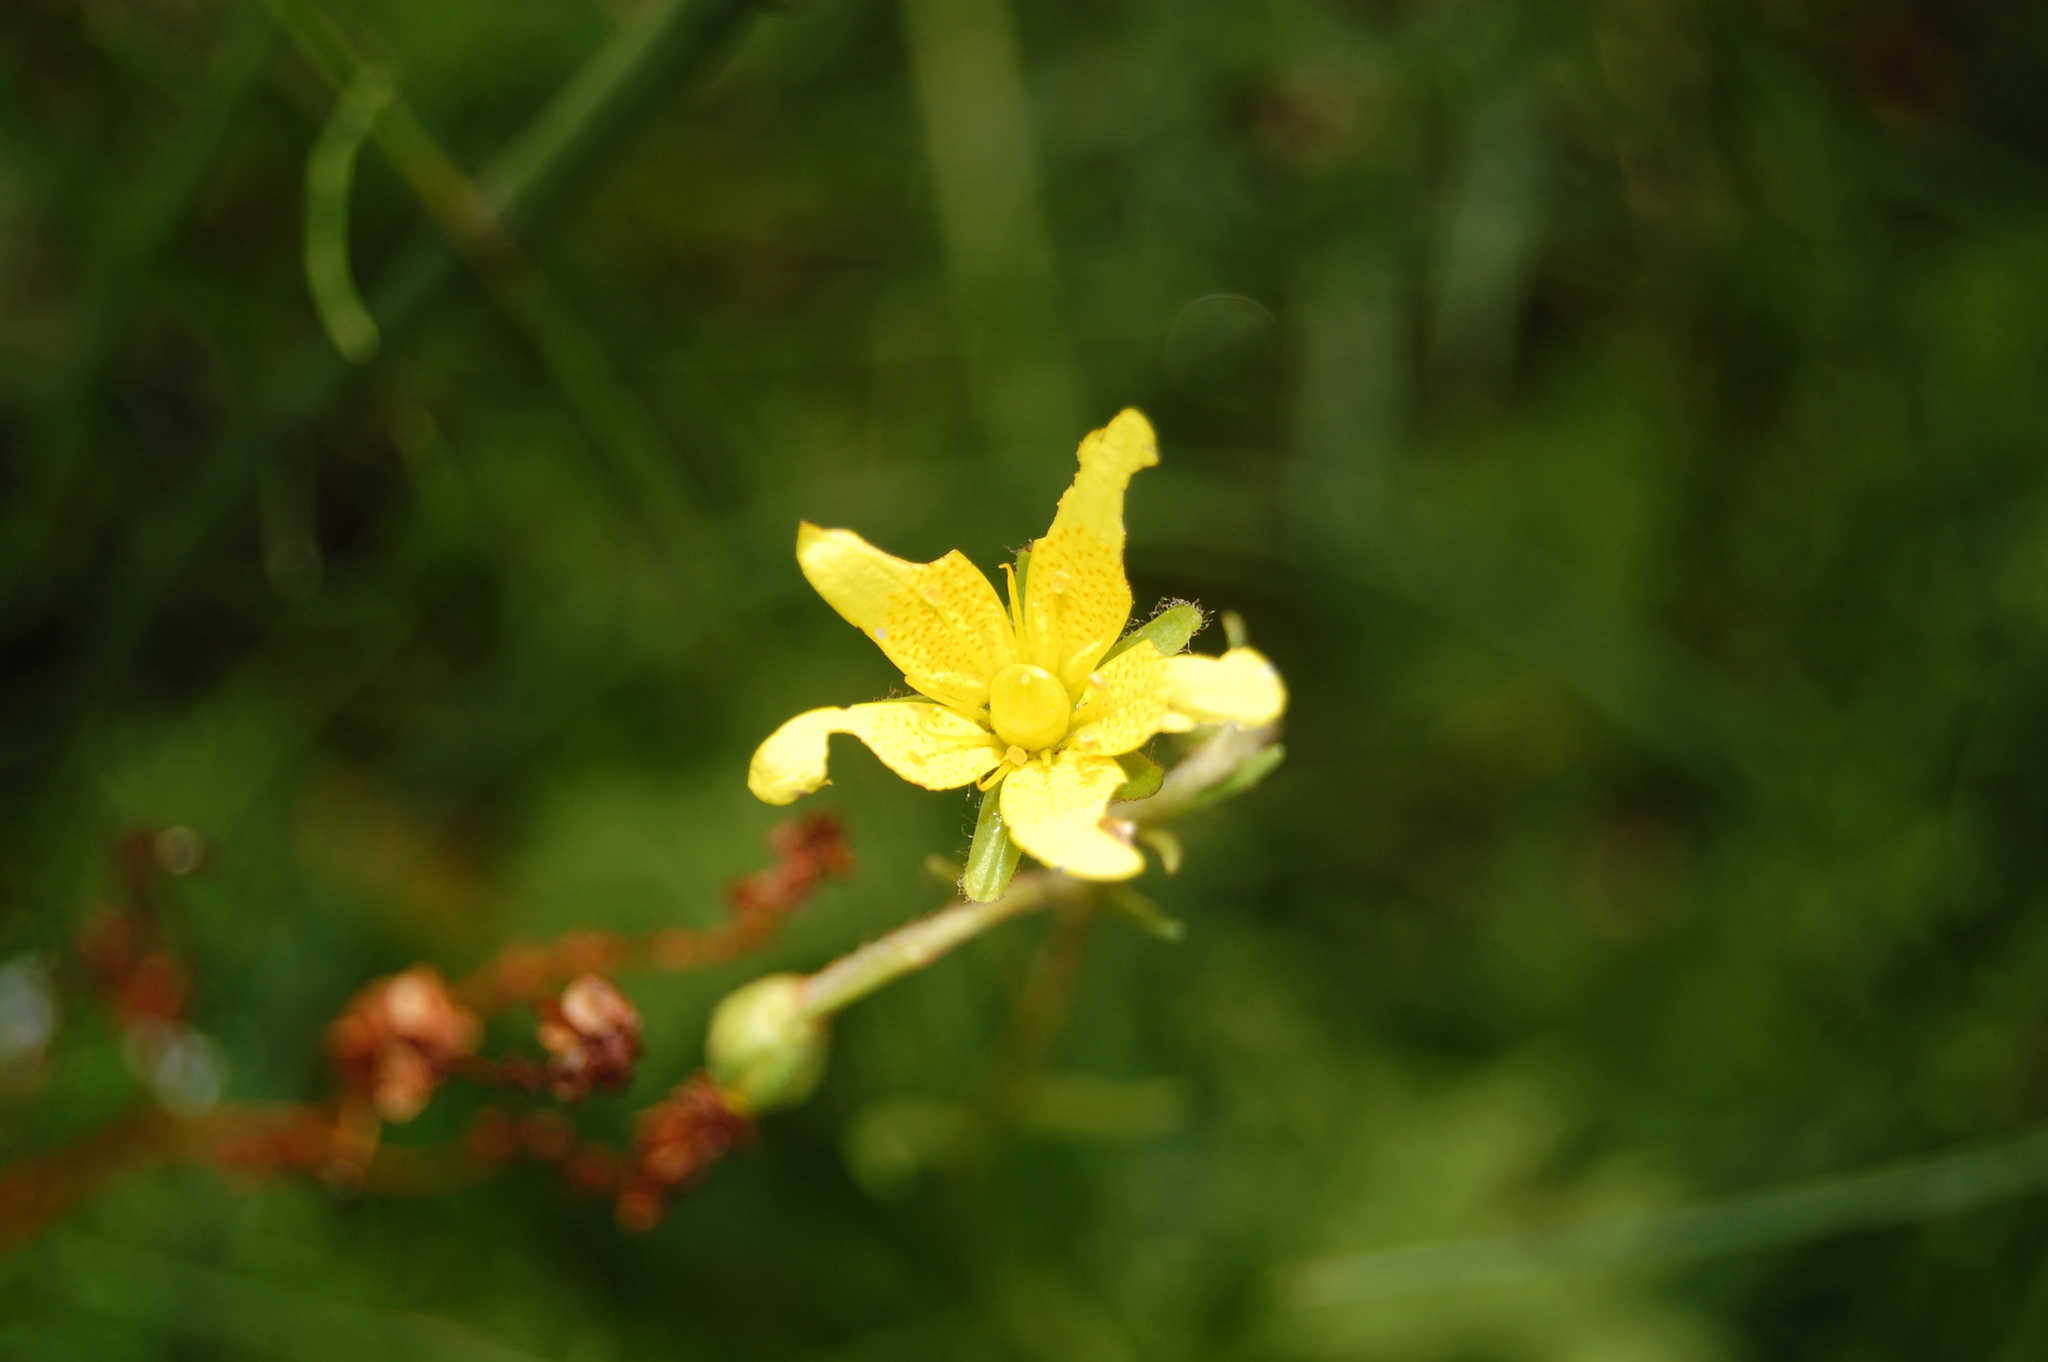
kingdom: Plantae
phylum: Tracheophyta
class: Magnoliopsida
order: Saxifragales
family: Saxifragaceae
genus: Saxifraga
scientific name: Saxifraga hirculus
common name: Yellow marsh saxifrage
